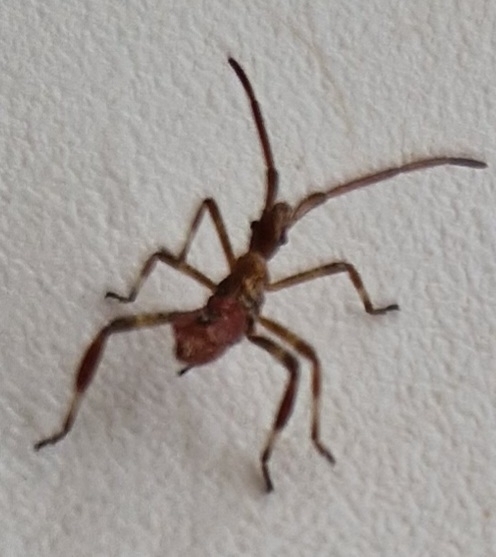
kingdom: Animalia
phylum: Arthropoda
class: Insecta
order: Hemiptera
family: Coreidae
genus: Leptoglossus
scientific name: Leptoglossus occidentalis
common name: Western conifer-seed bug
